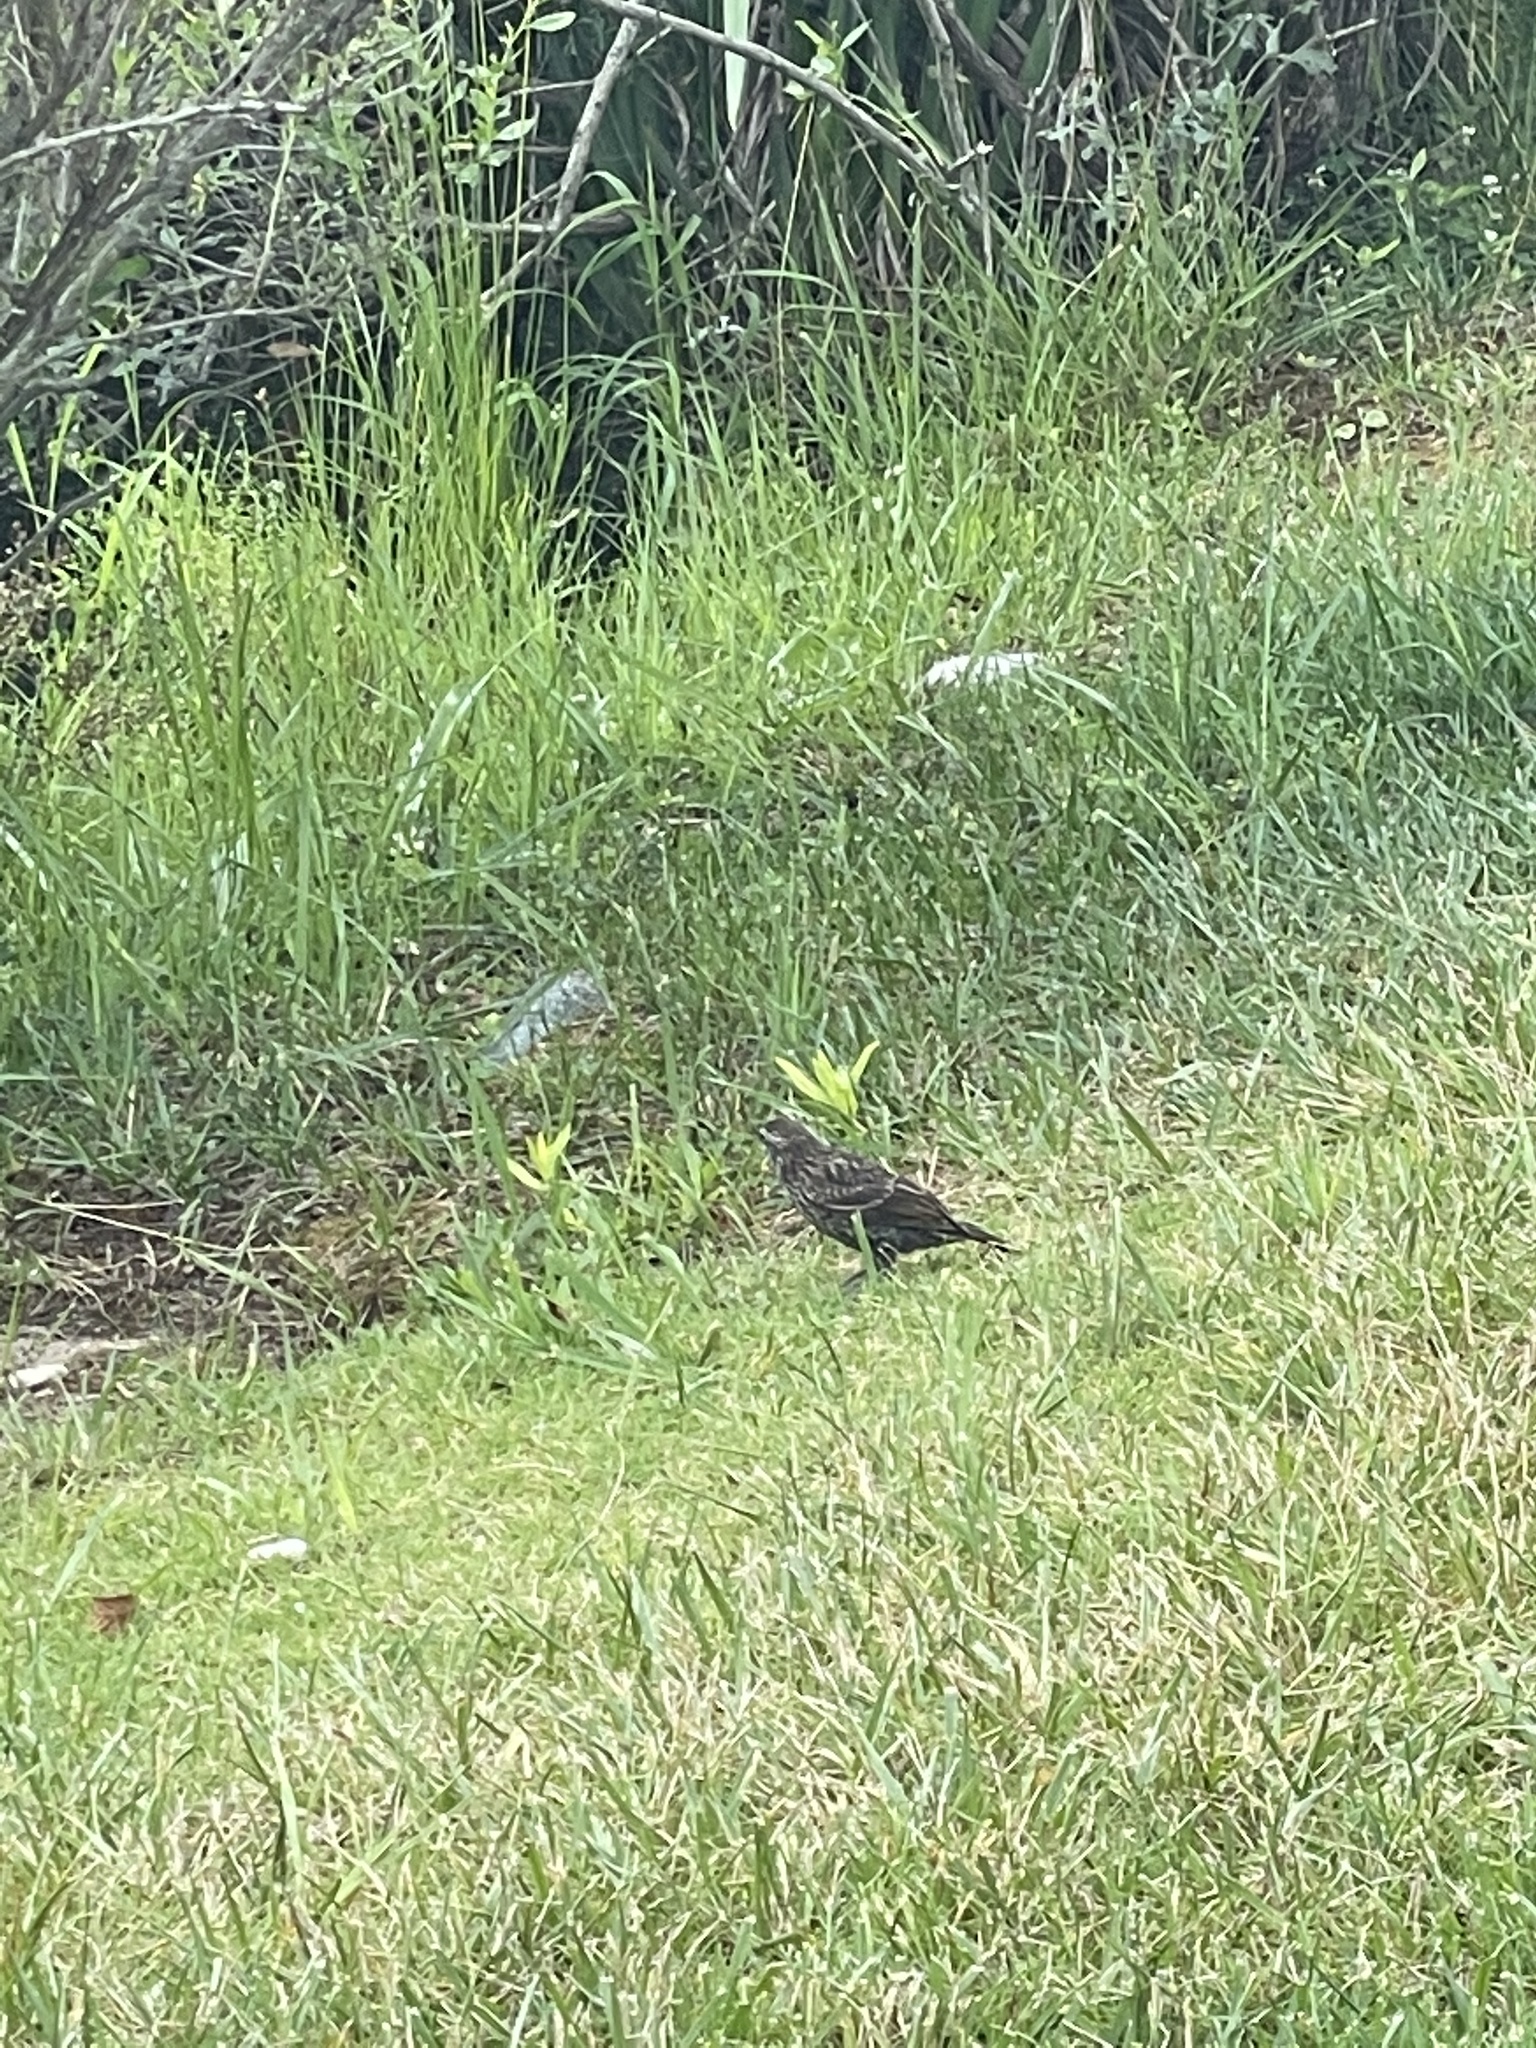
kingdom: Animalia
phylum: Chordata
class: Aves
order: Passeriformes
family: Sturnidae
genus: Sturnus
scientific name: Sturnus vulgaris
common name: Common starling
